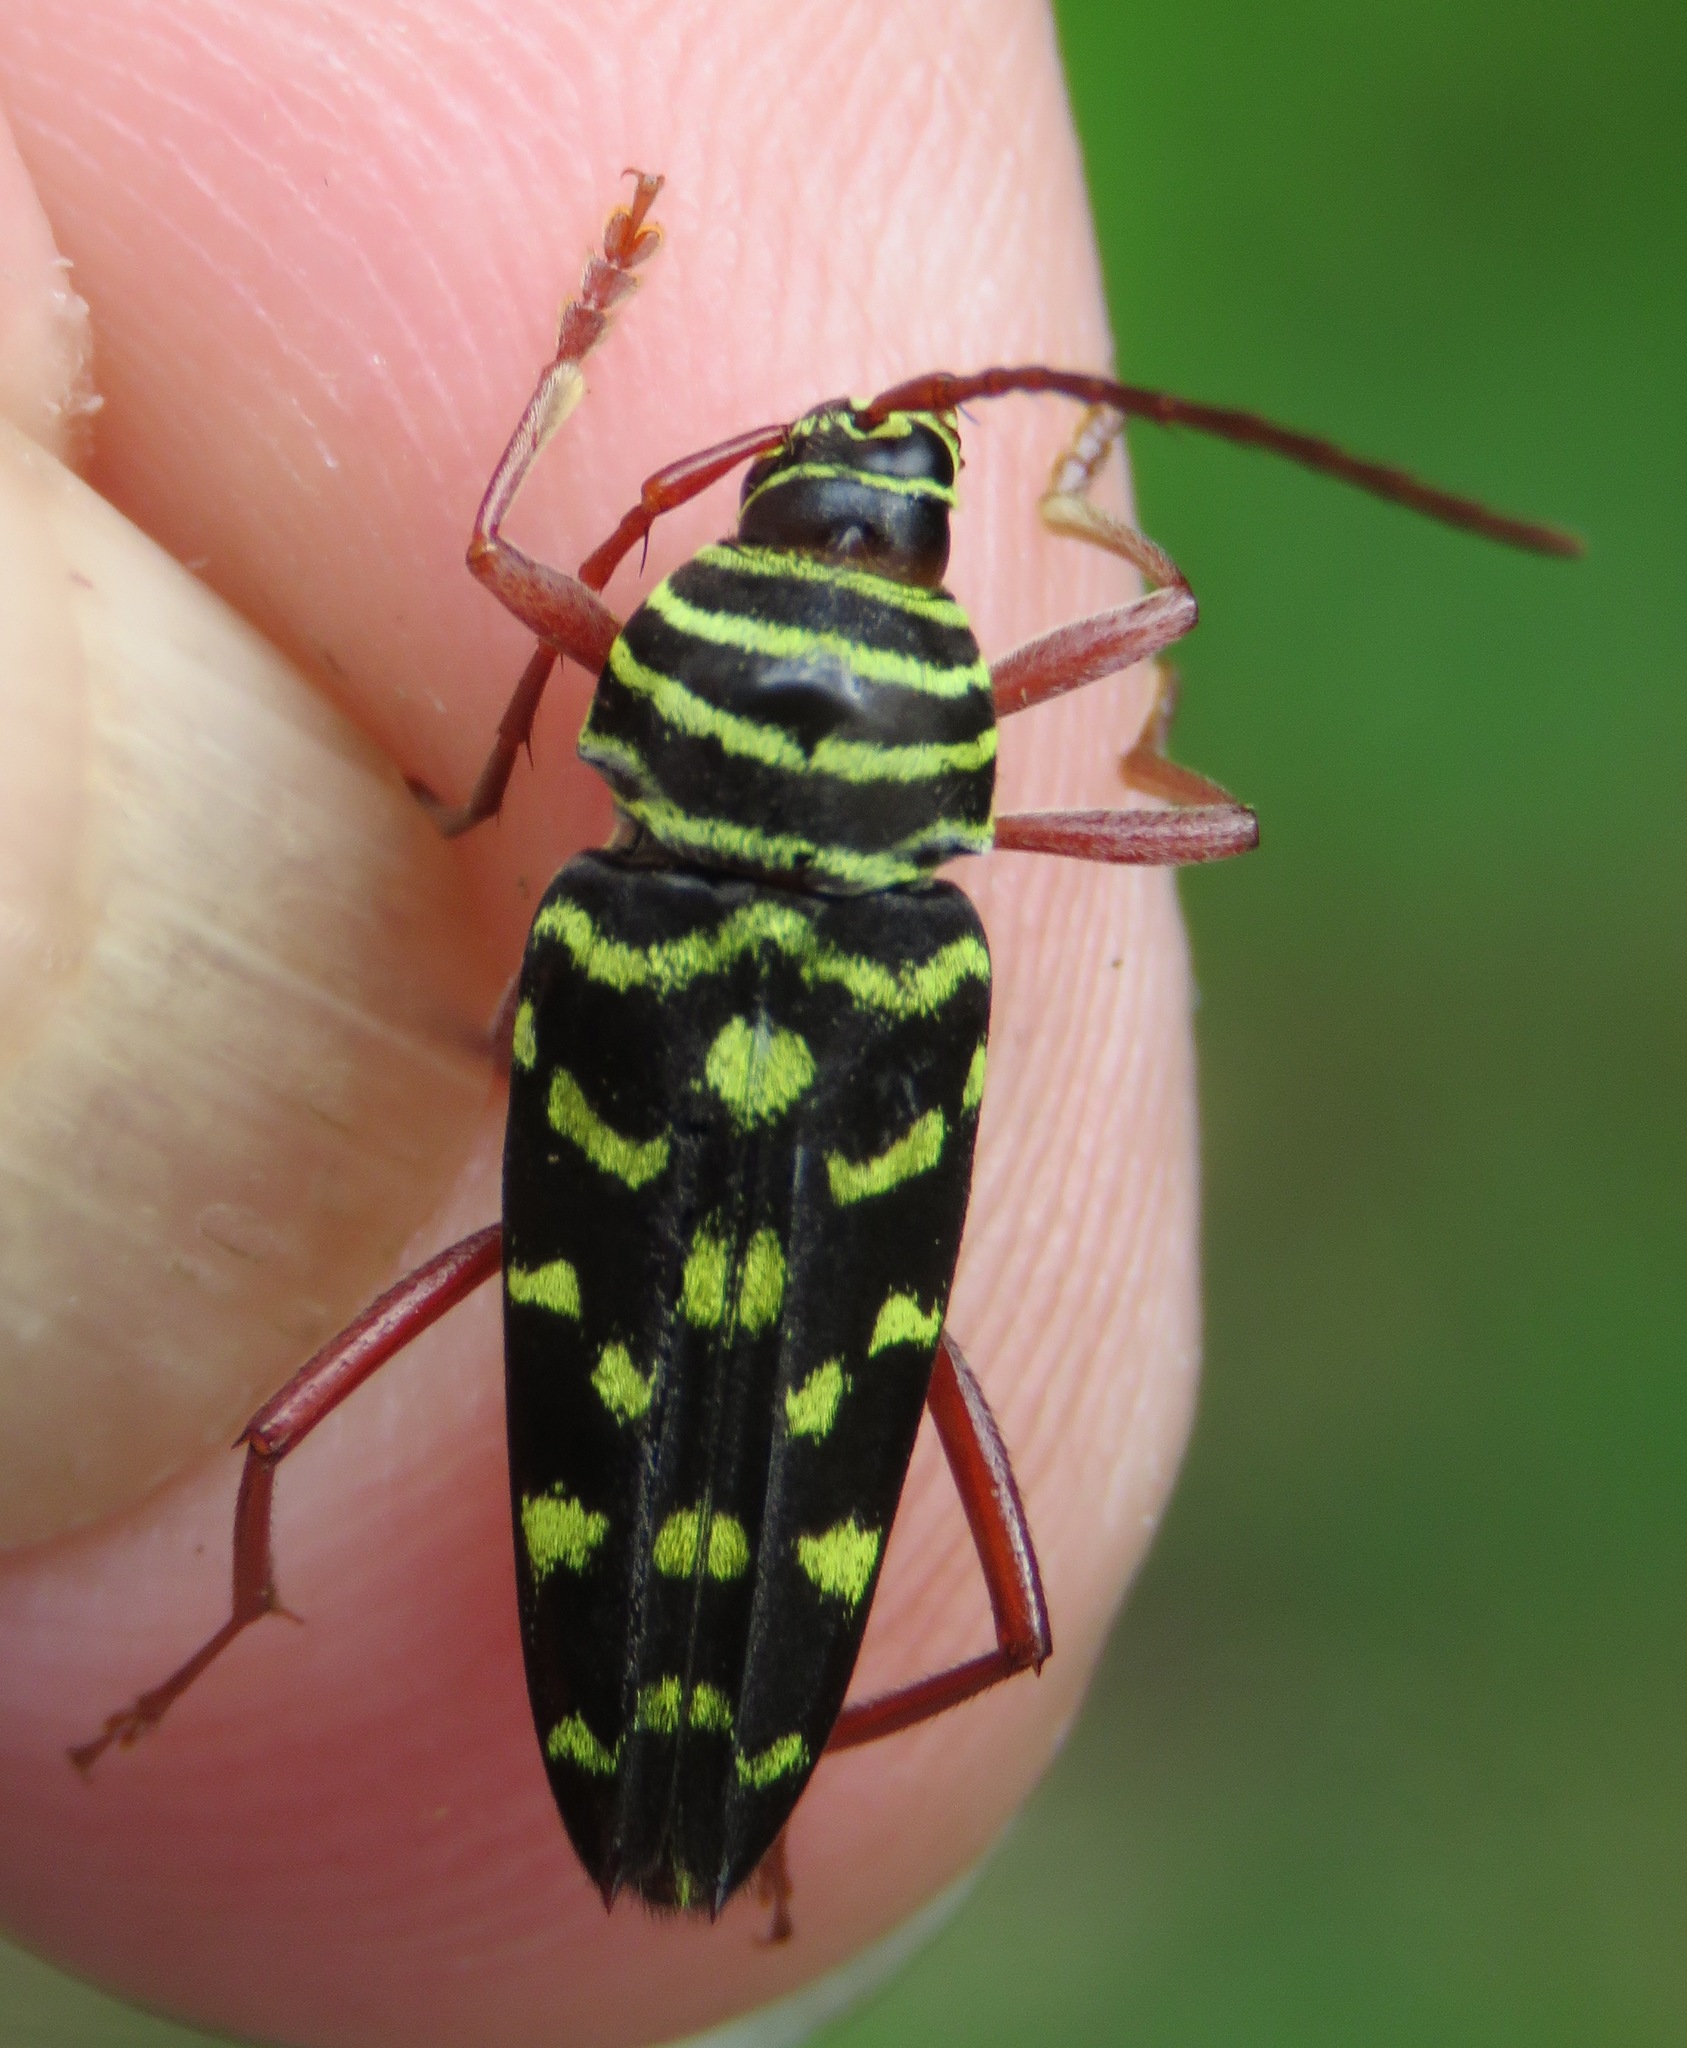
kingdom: Animalia
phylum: Arthropoda
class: Insecta
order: Coleoptera
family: Cerambycidae
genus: Placosternus
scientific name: Placosternus difficilis
